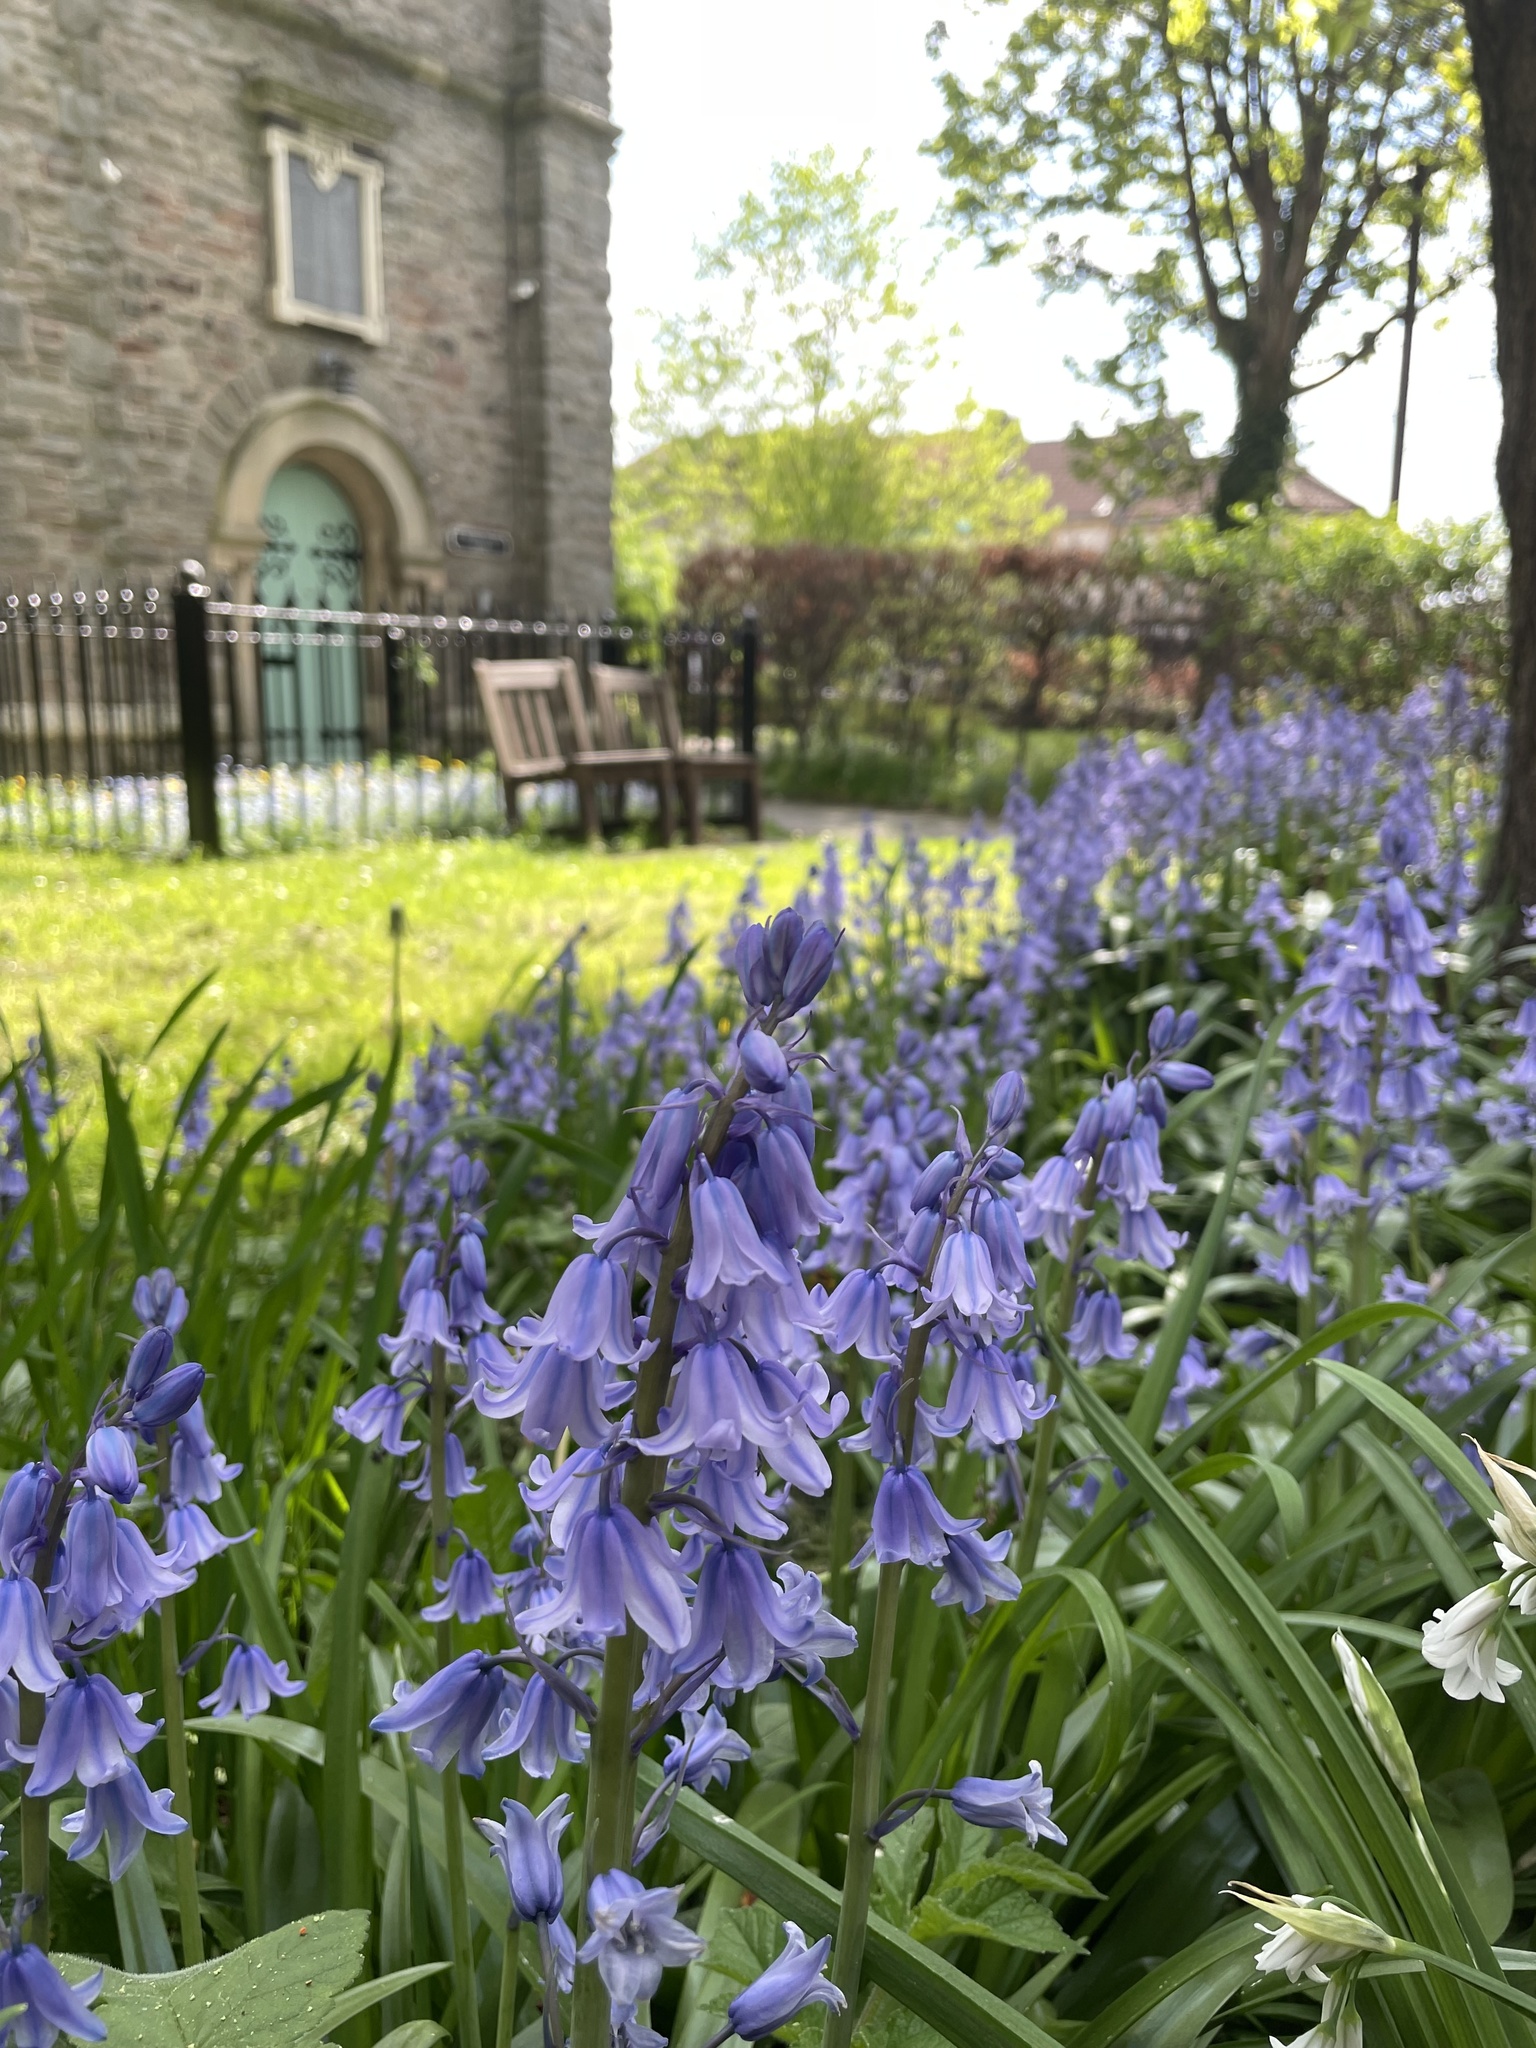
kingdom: Plantae
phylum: Tracheophyta
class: Liliopsida
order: Asparagales
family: Asparagaceae
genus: Hyacinthoides
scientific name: Hyacinthoides hispanica
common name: Spanish bluebell
